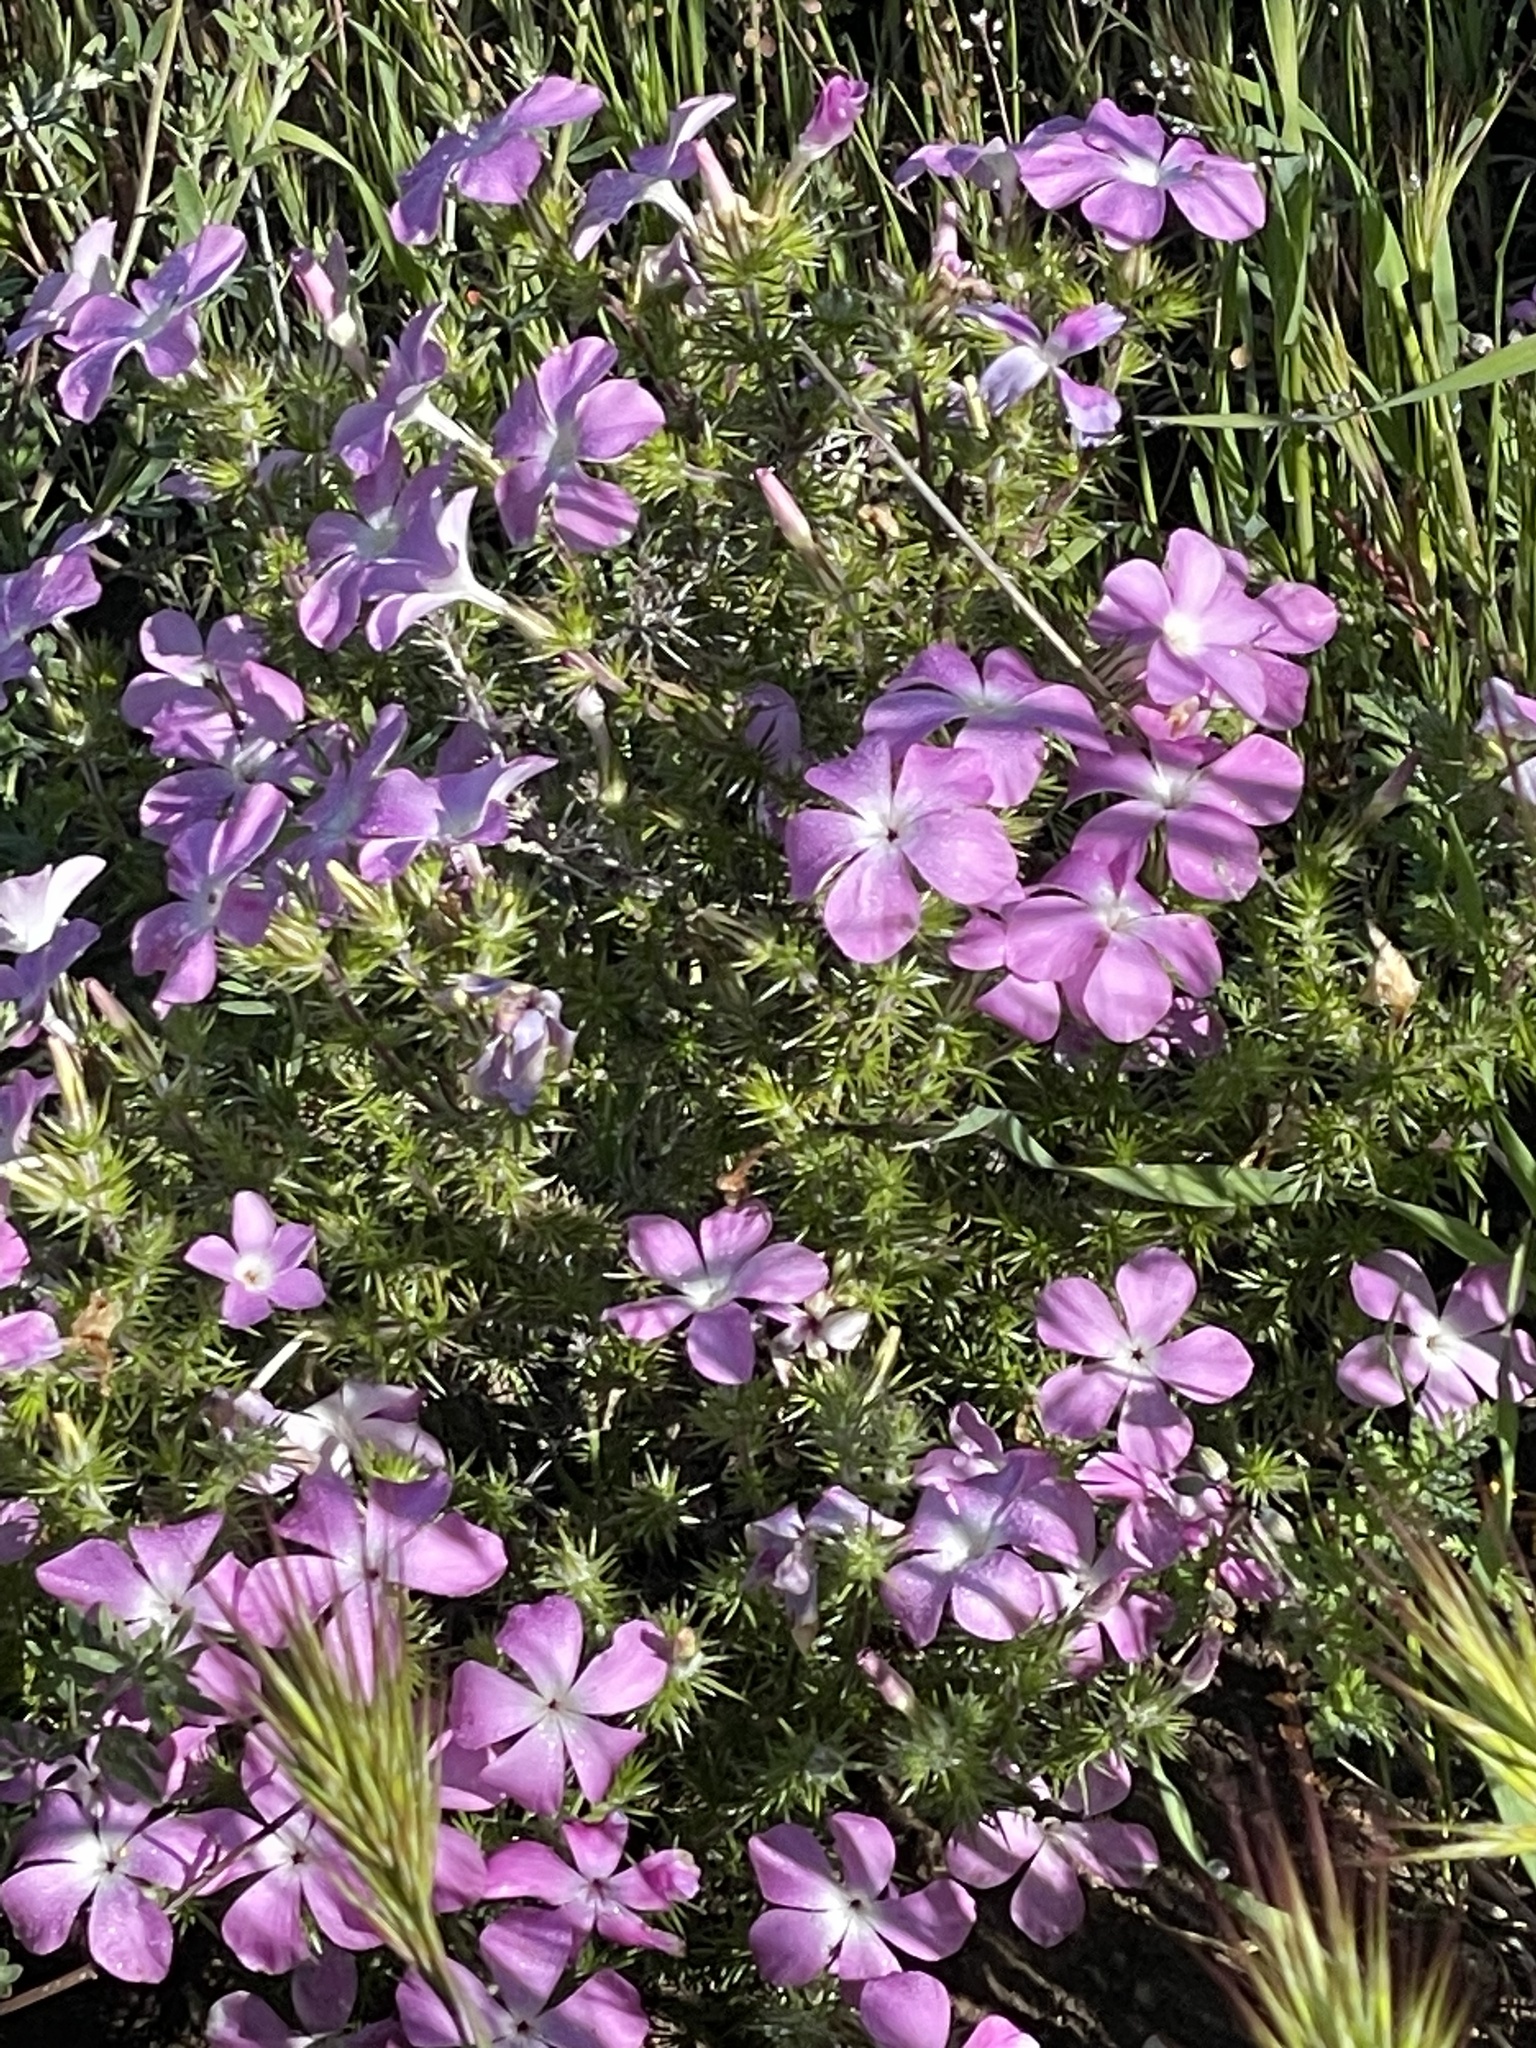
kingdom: Plantae
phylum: Tracheophyta
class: Magnoliopsida
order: Ericales
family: Polemoniaceae
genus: Linanthus
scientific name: Linanthus californicus
